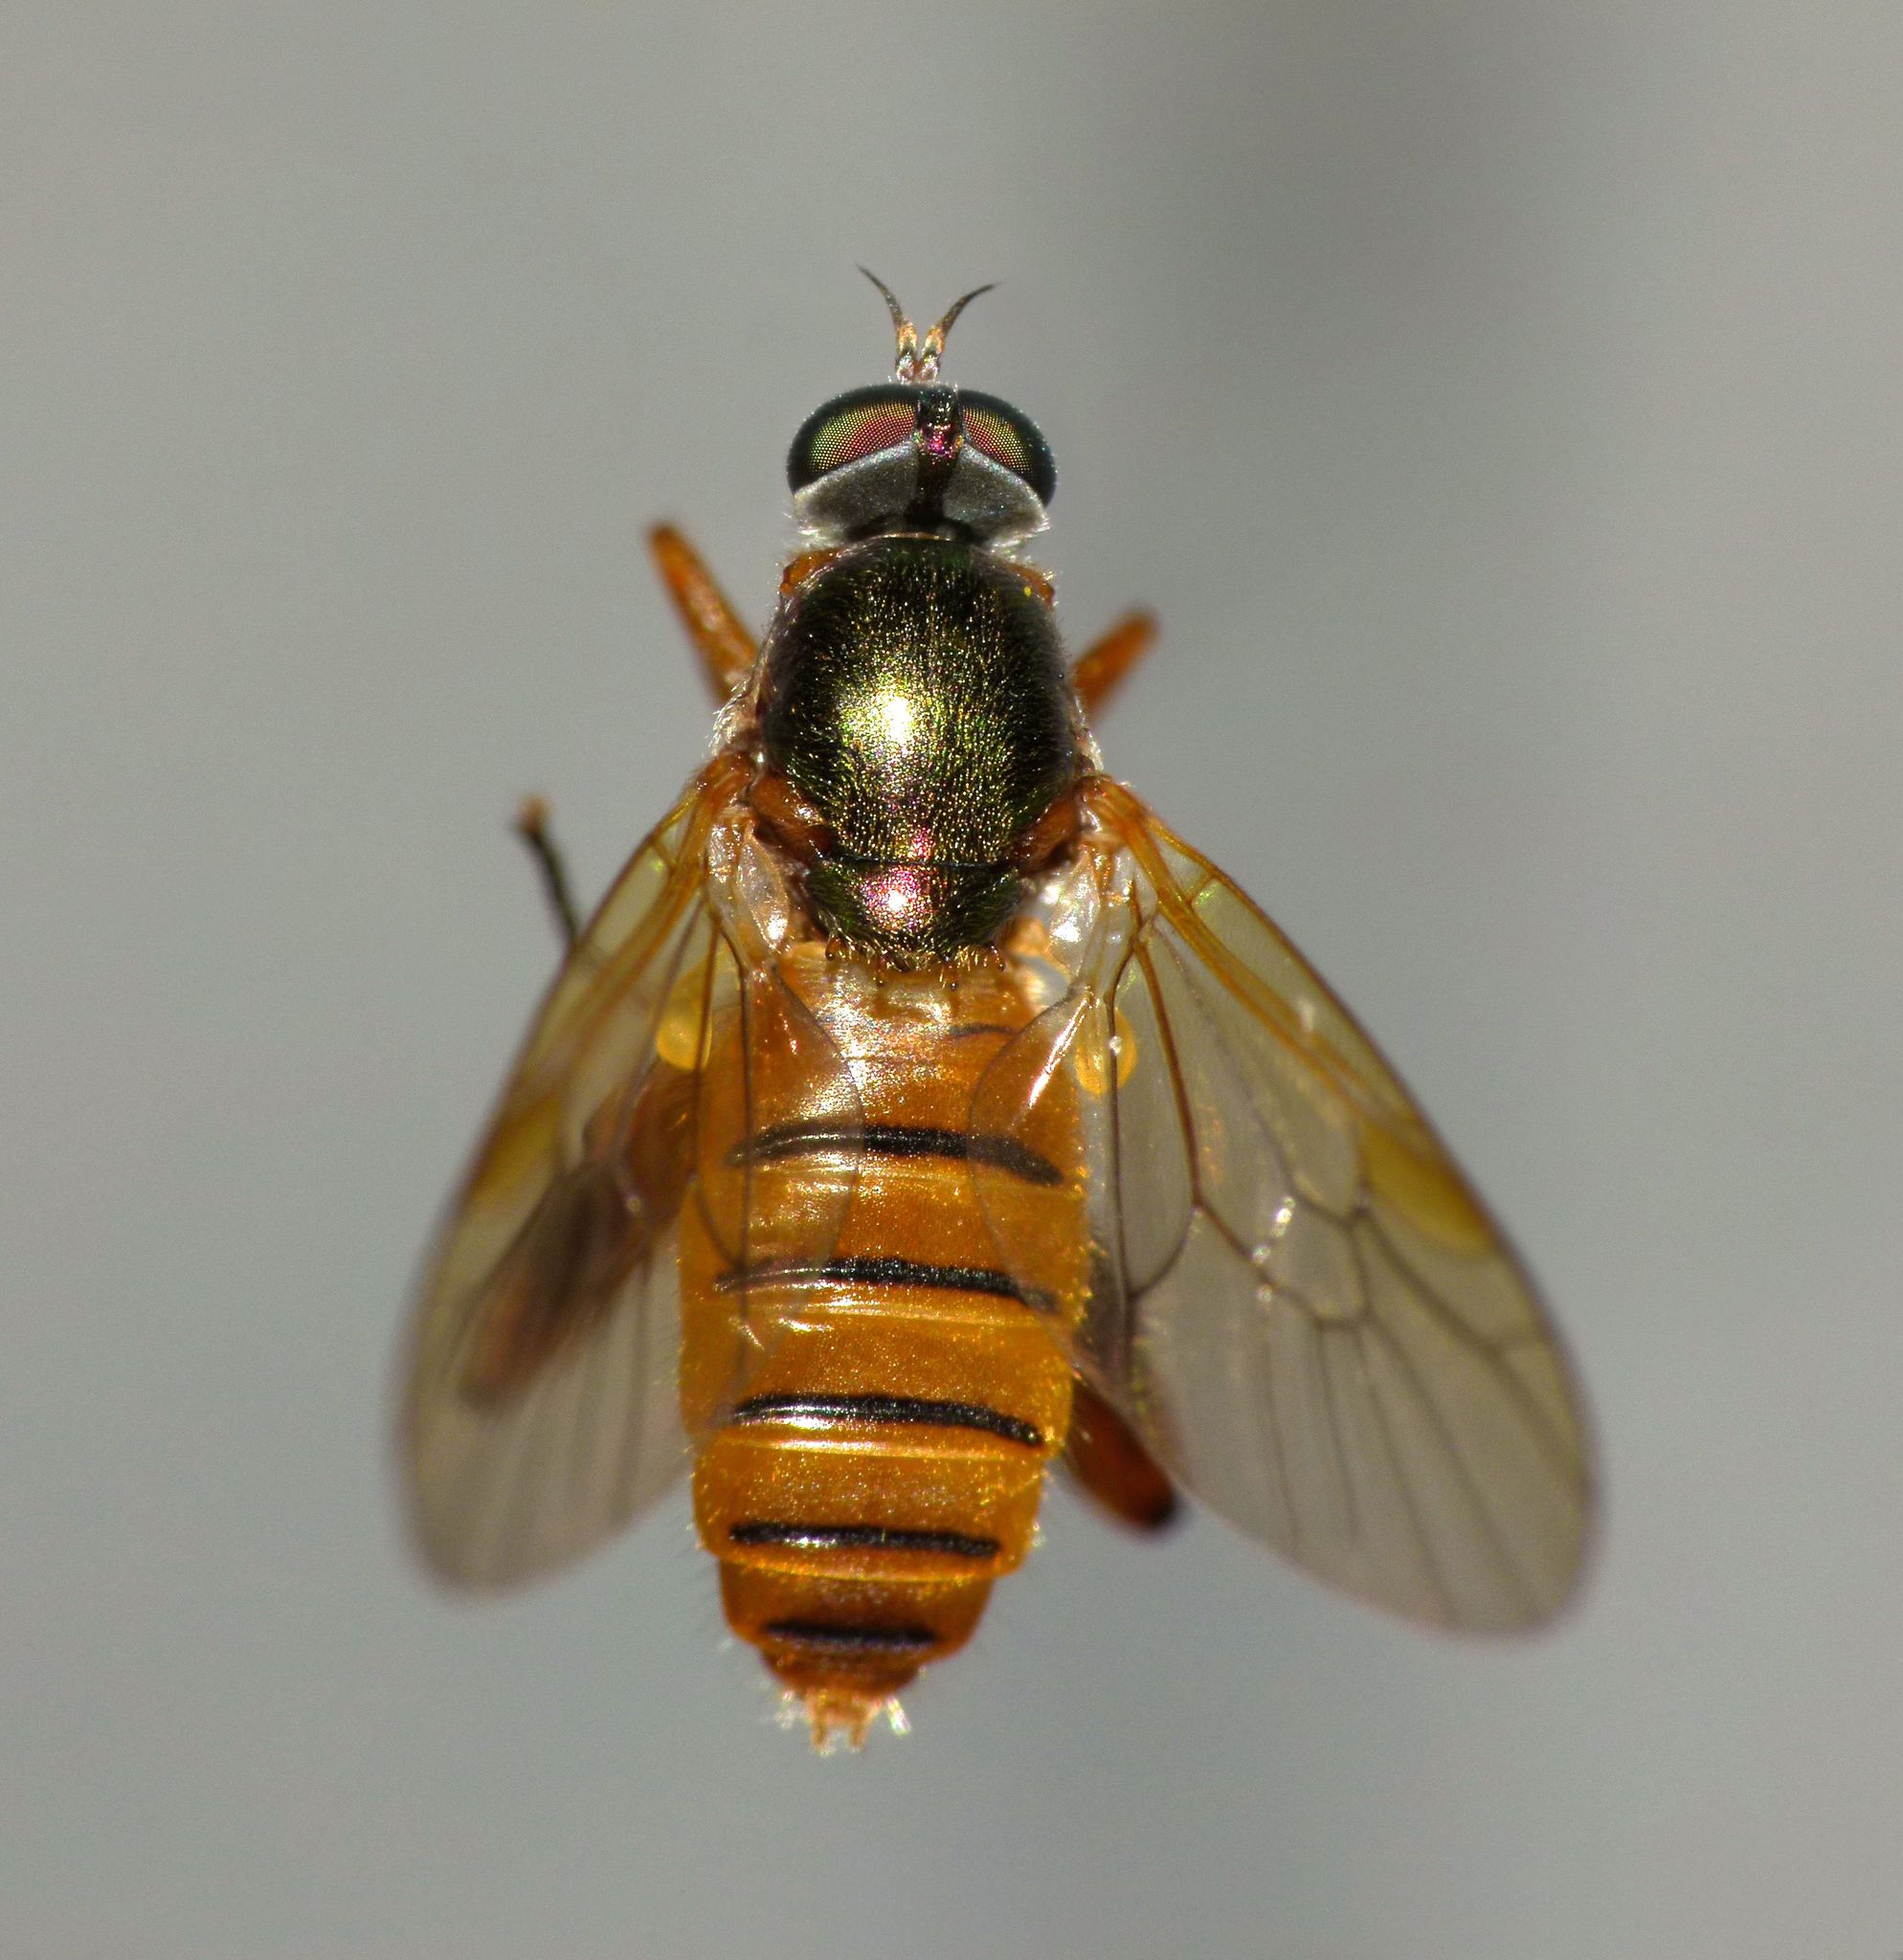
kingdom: Animalia
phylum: Arthropoda
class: Insecta
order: Diptera
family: Stratiomyidae
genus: Neactina
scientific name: Neactina opposita
